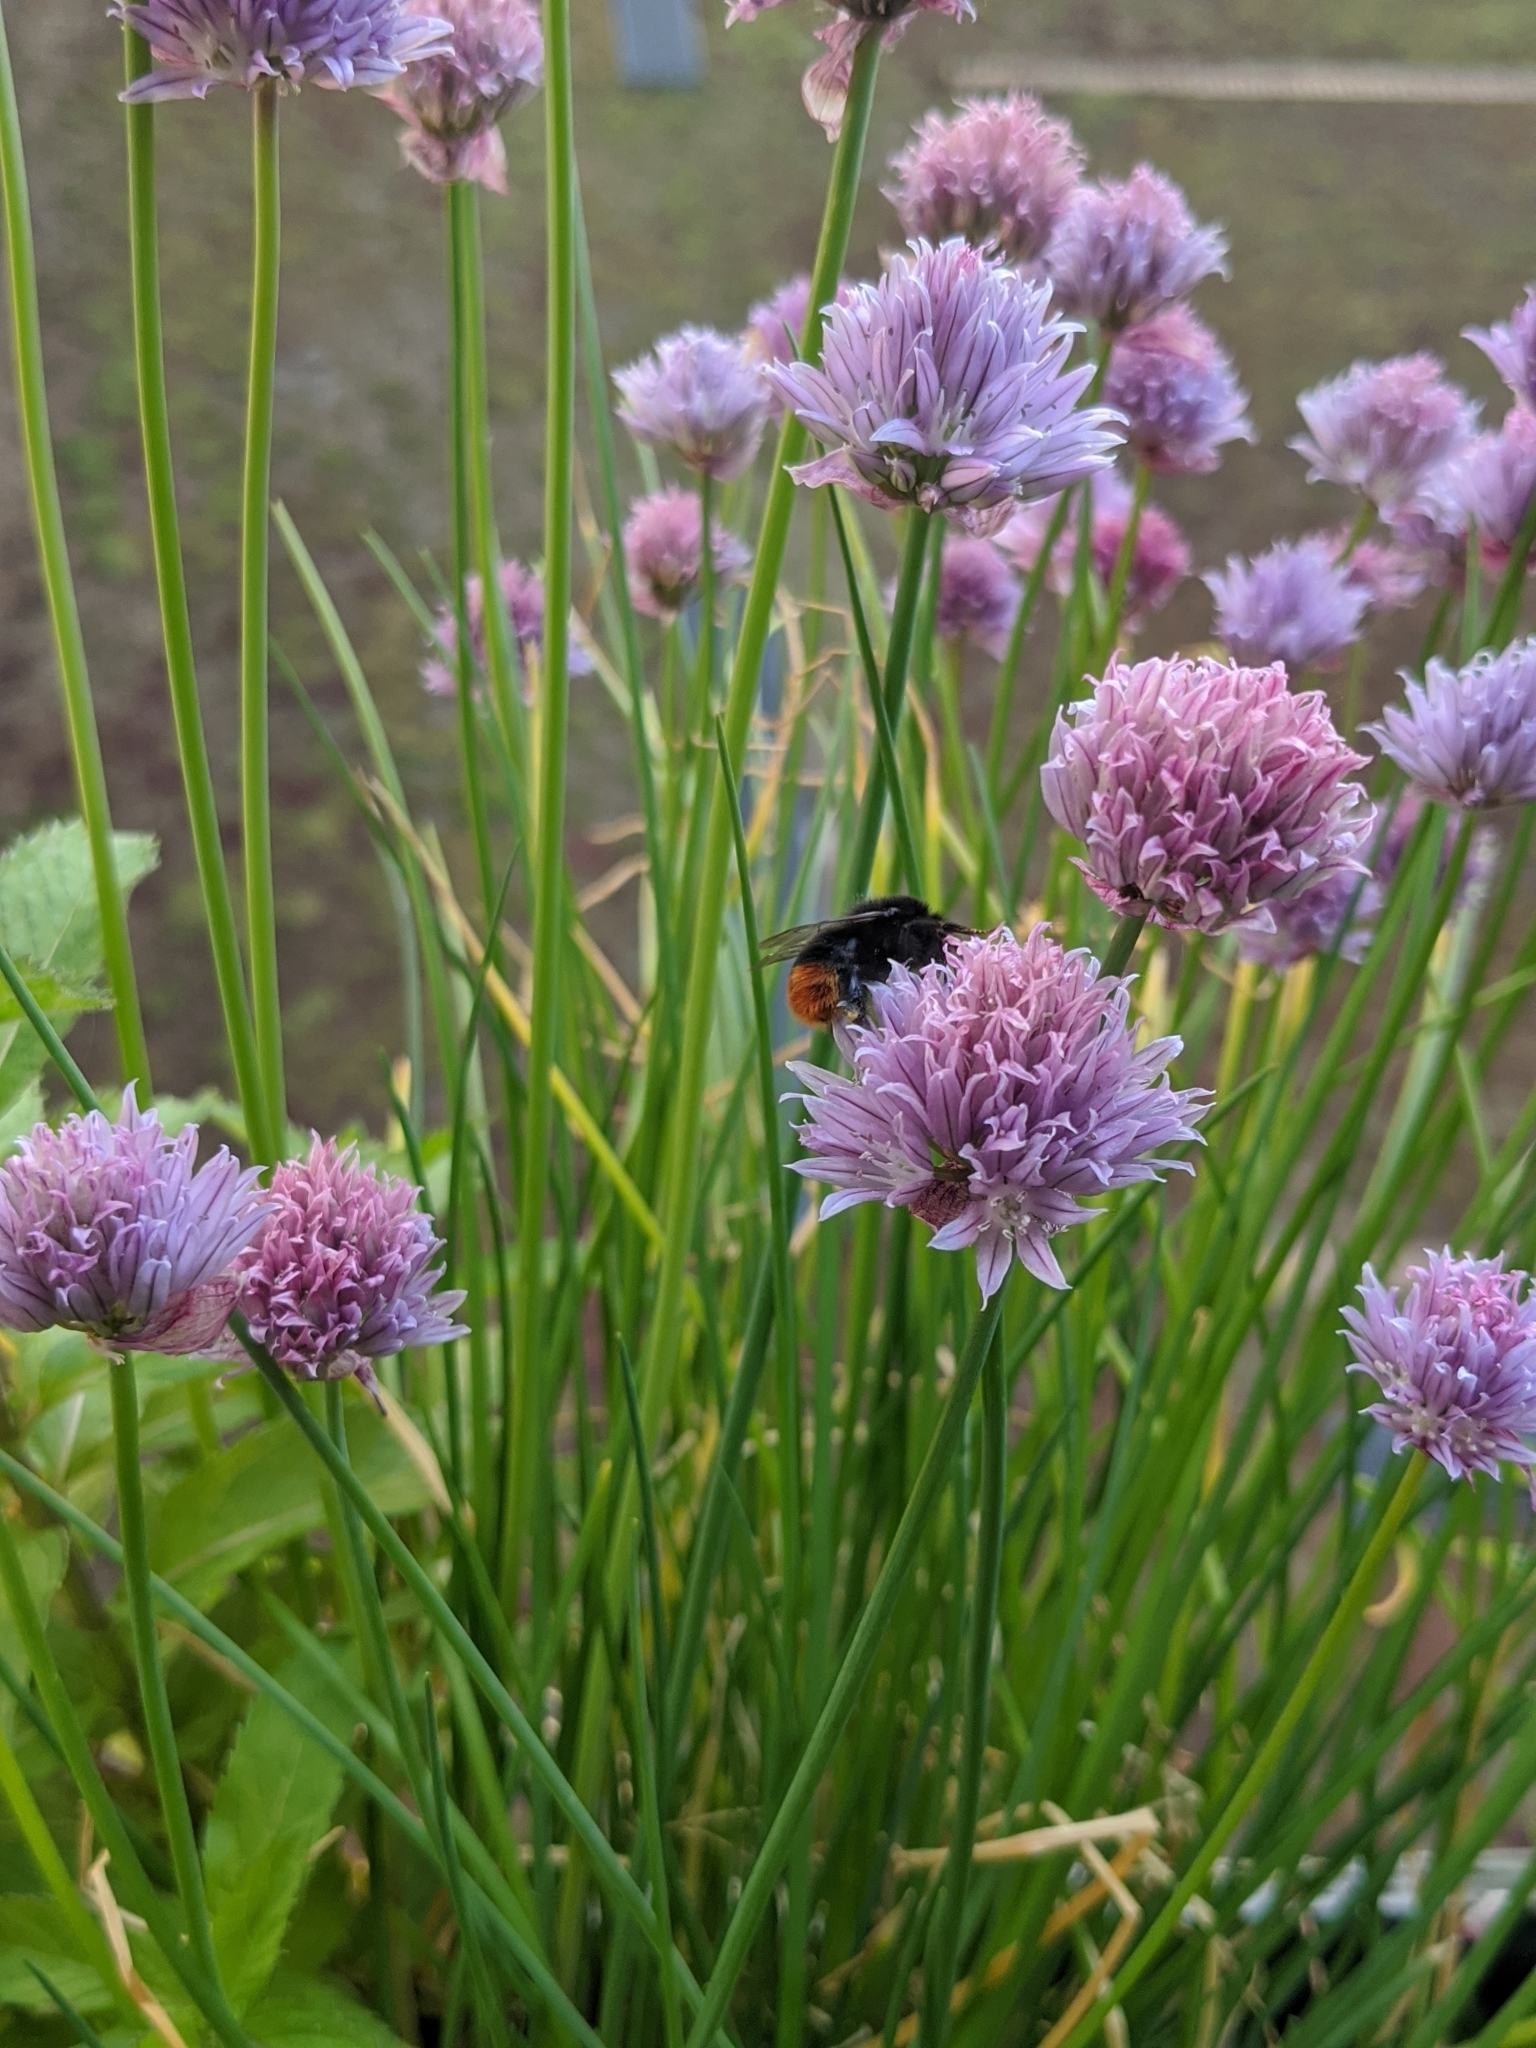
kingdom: Animalia
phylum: Arthropoda
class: Insecta
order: Hymenoptera
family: Apidae
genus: Bombus
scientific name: Bombus lapidarius
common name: Large red-tailed humble-bee
